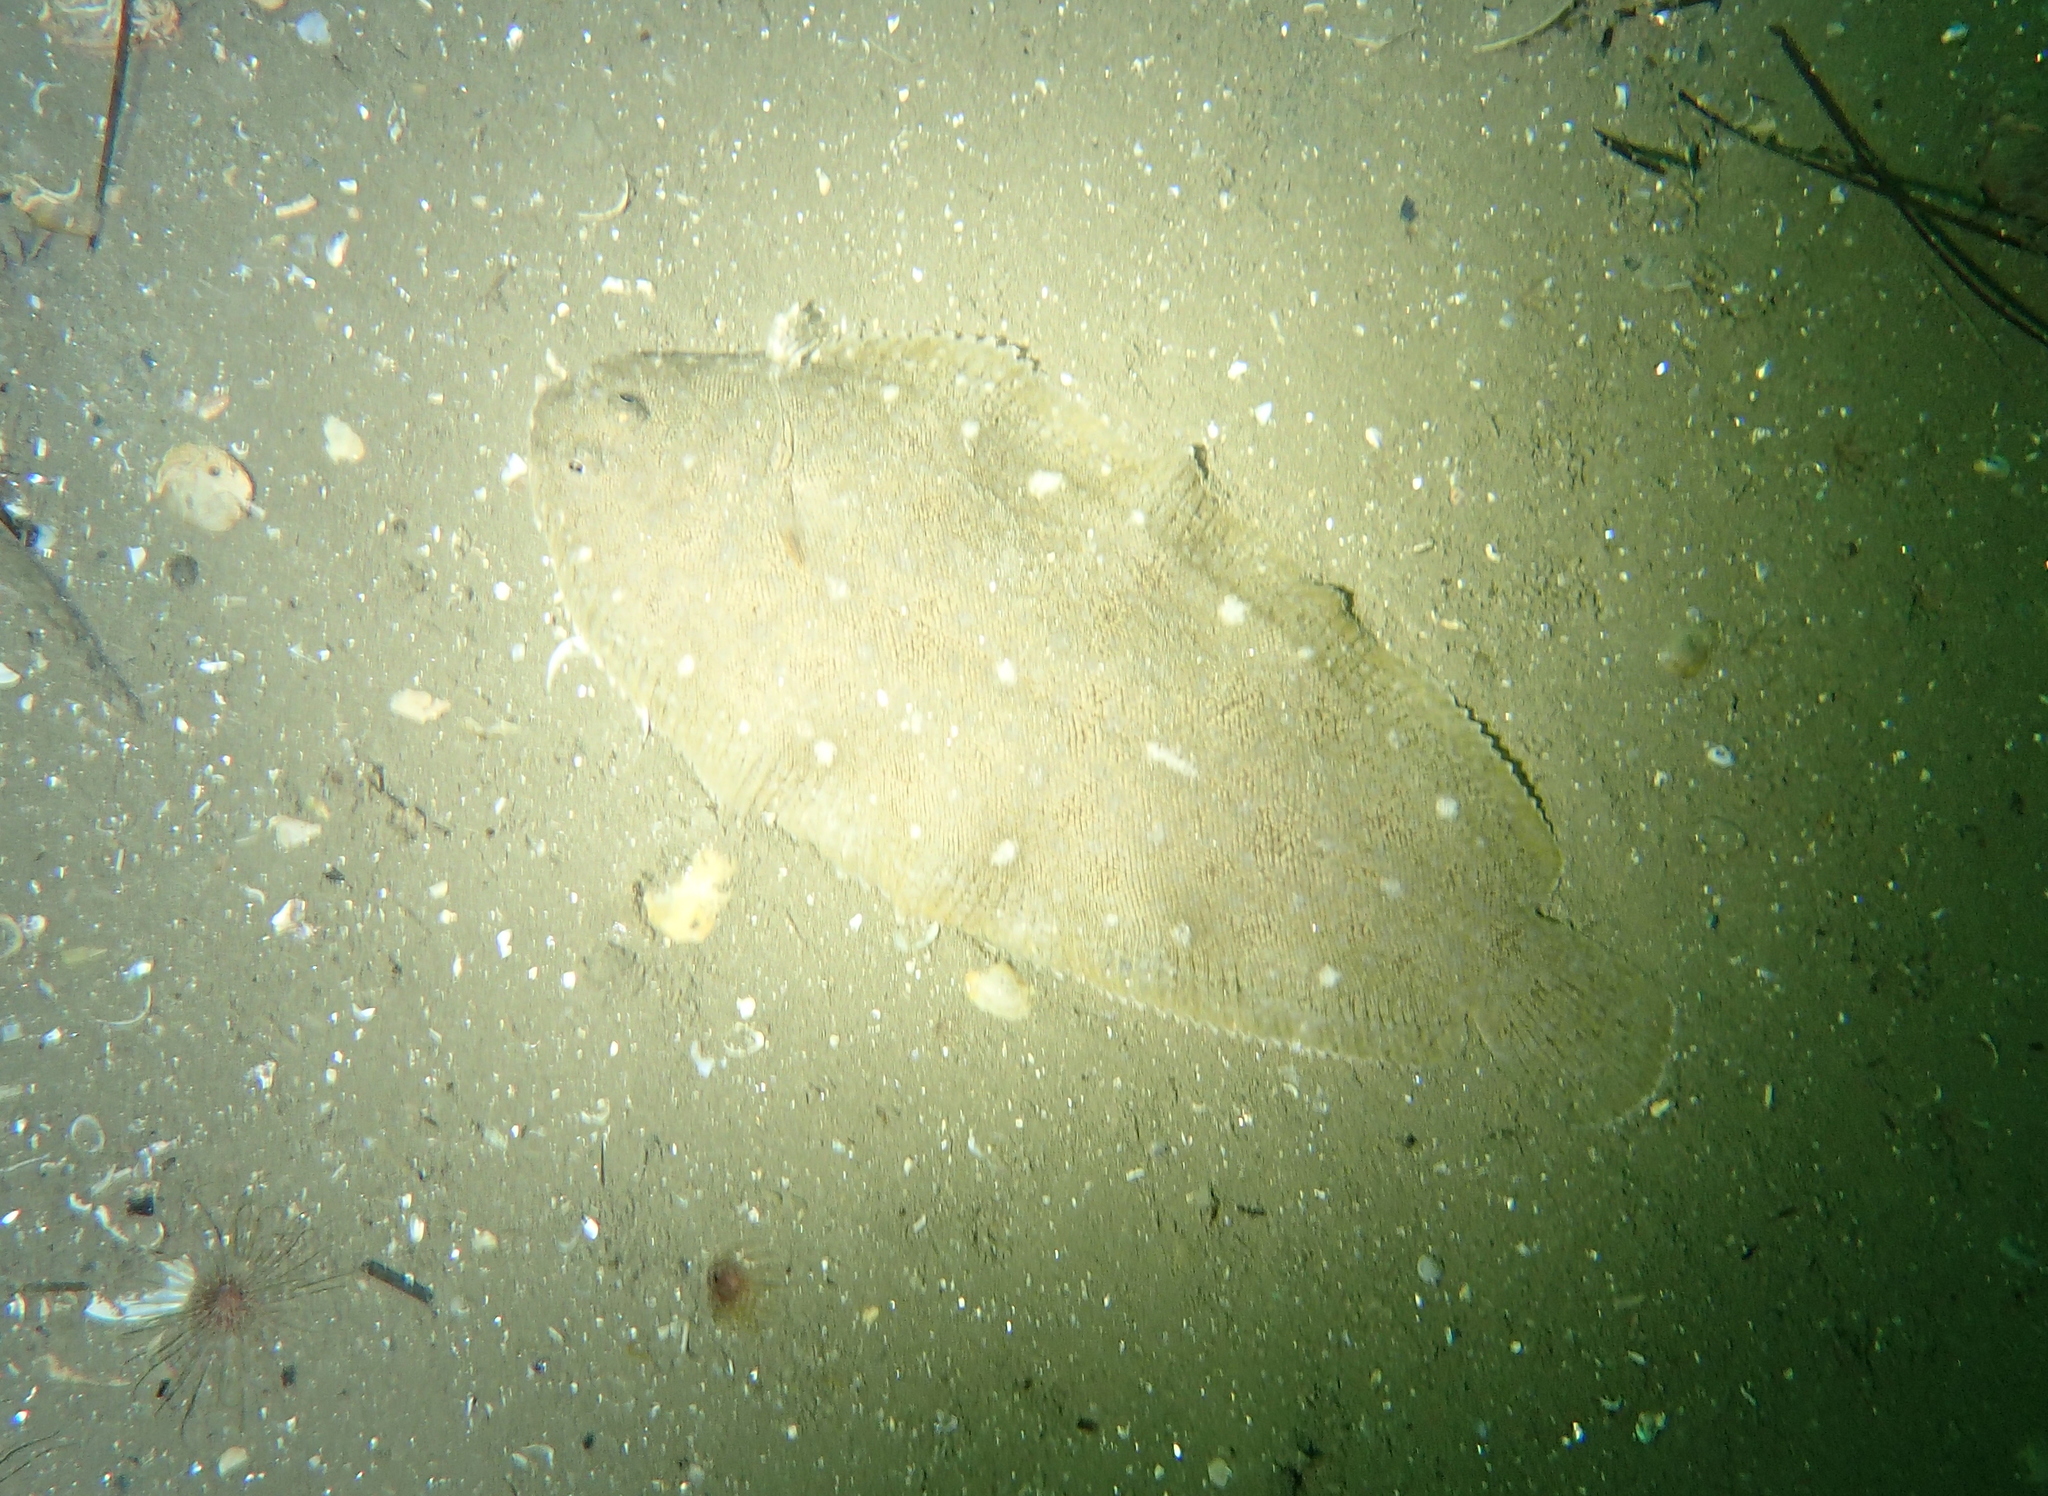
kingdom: Animalia
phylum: Chordata
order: Pleuronectiformes
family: Soleidae
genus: Solea
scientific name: Solea aegyptiaca
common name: Egyptian sole
